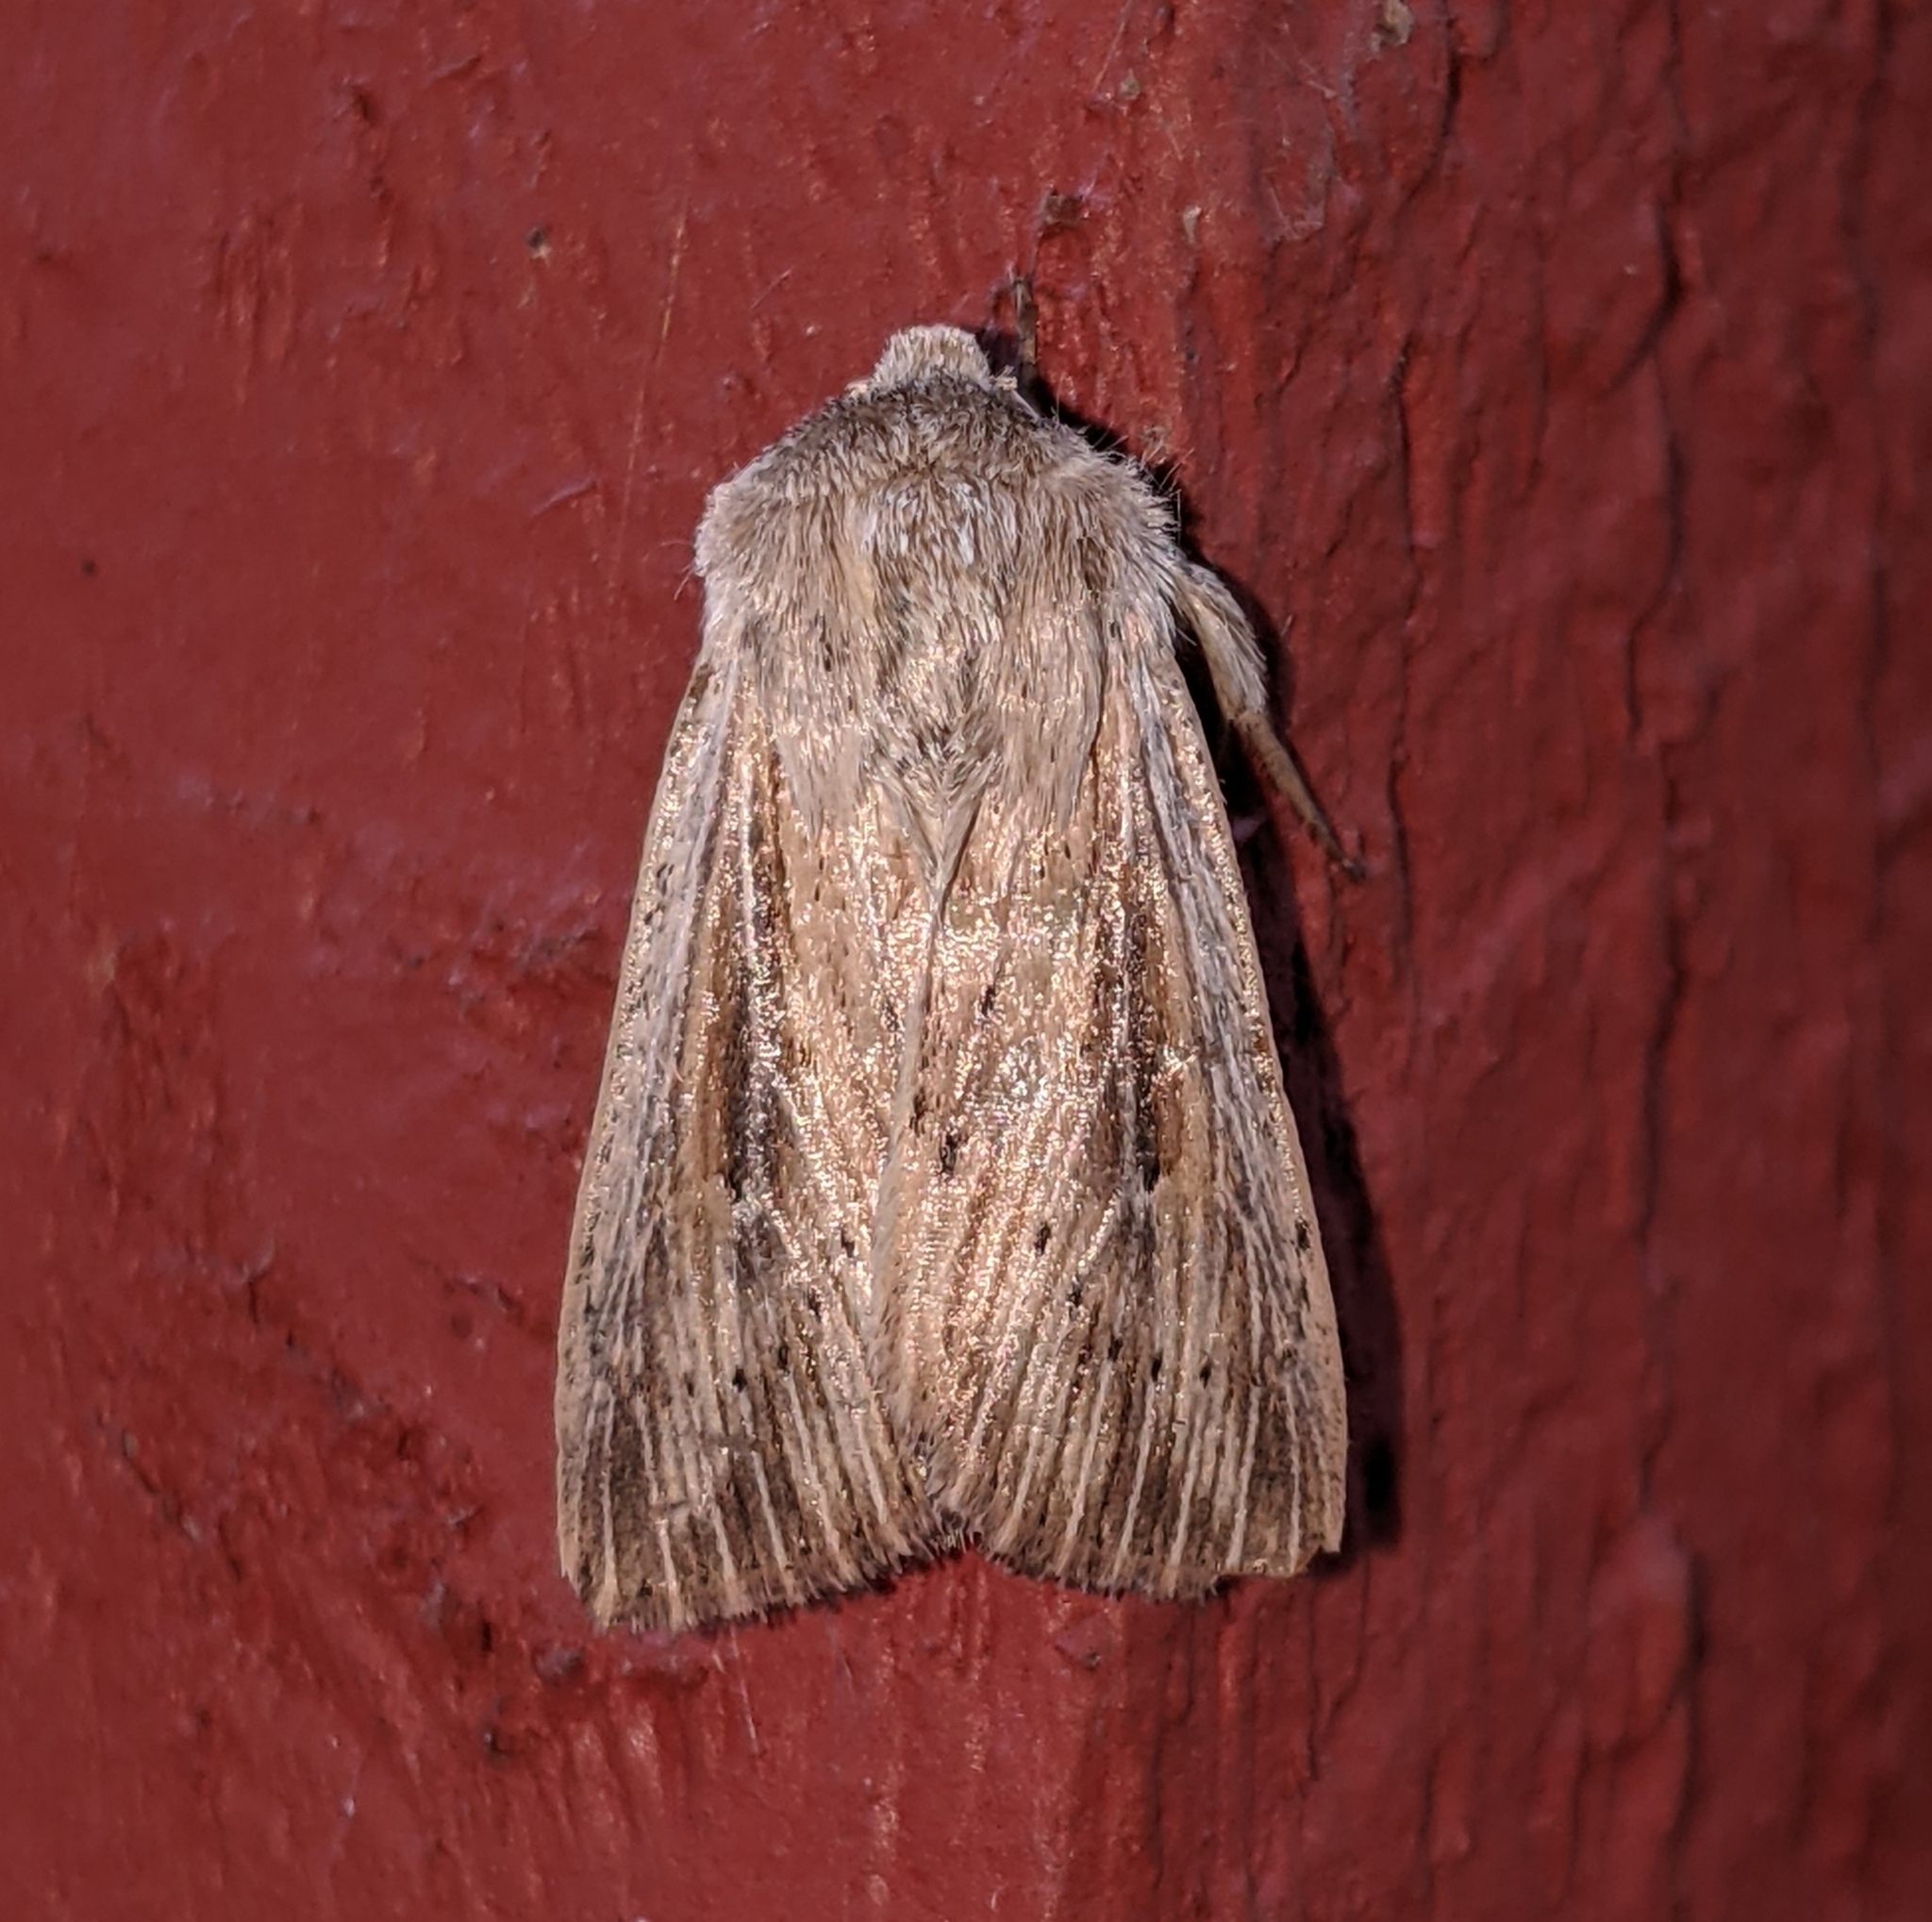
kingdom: Animalia
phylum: Arthropoda
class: Insecta
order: Lepidoptera
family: Noctuidae
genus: Leucania
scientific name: Leucania insueta
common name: Heterodox wainscot moth
